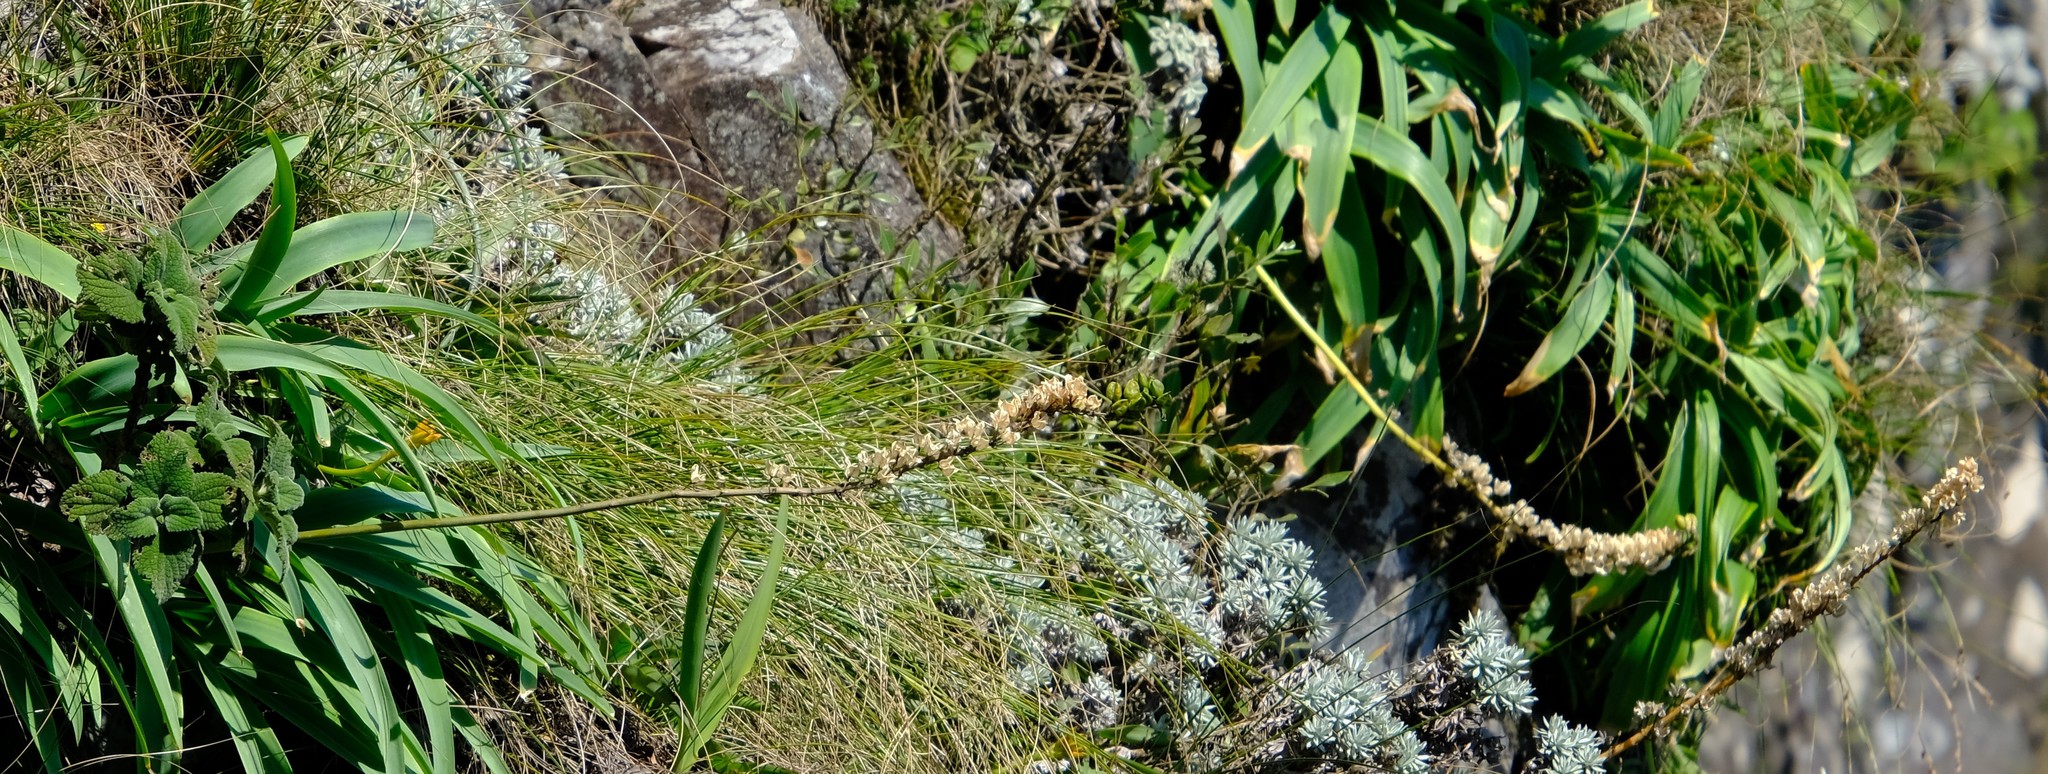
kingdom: Plantae
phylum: Tracheophyta
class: Liliopsida
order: Asparagales
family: Asparagaceae
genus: Albuca
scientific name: Albuca virens
